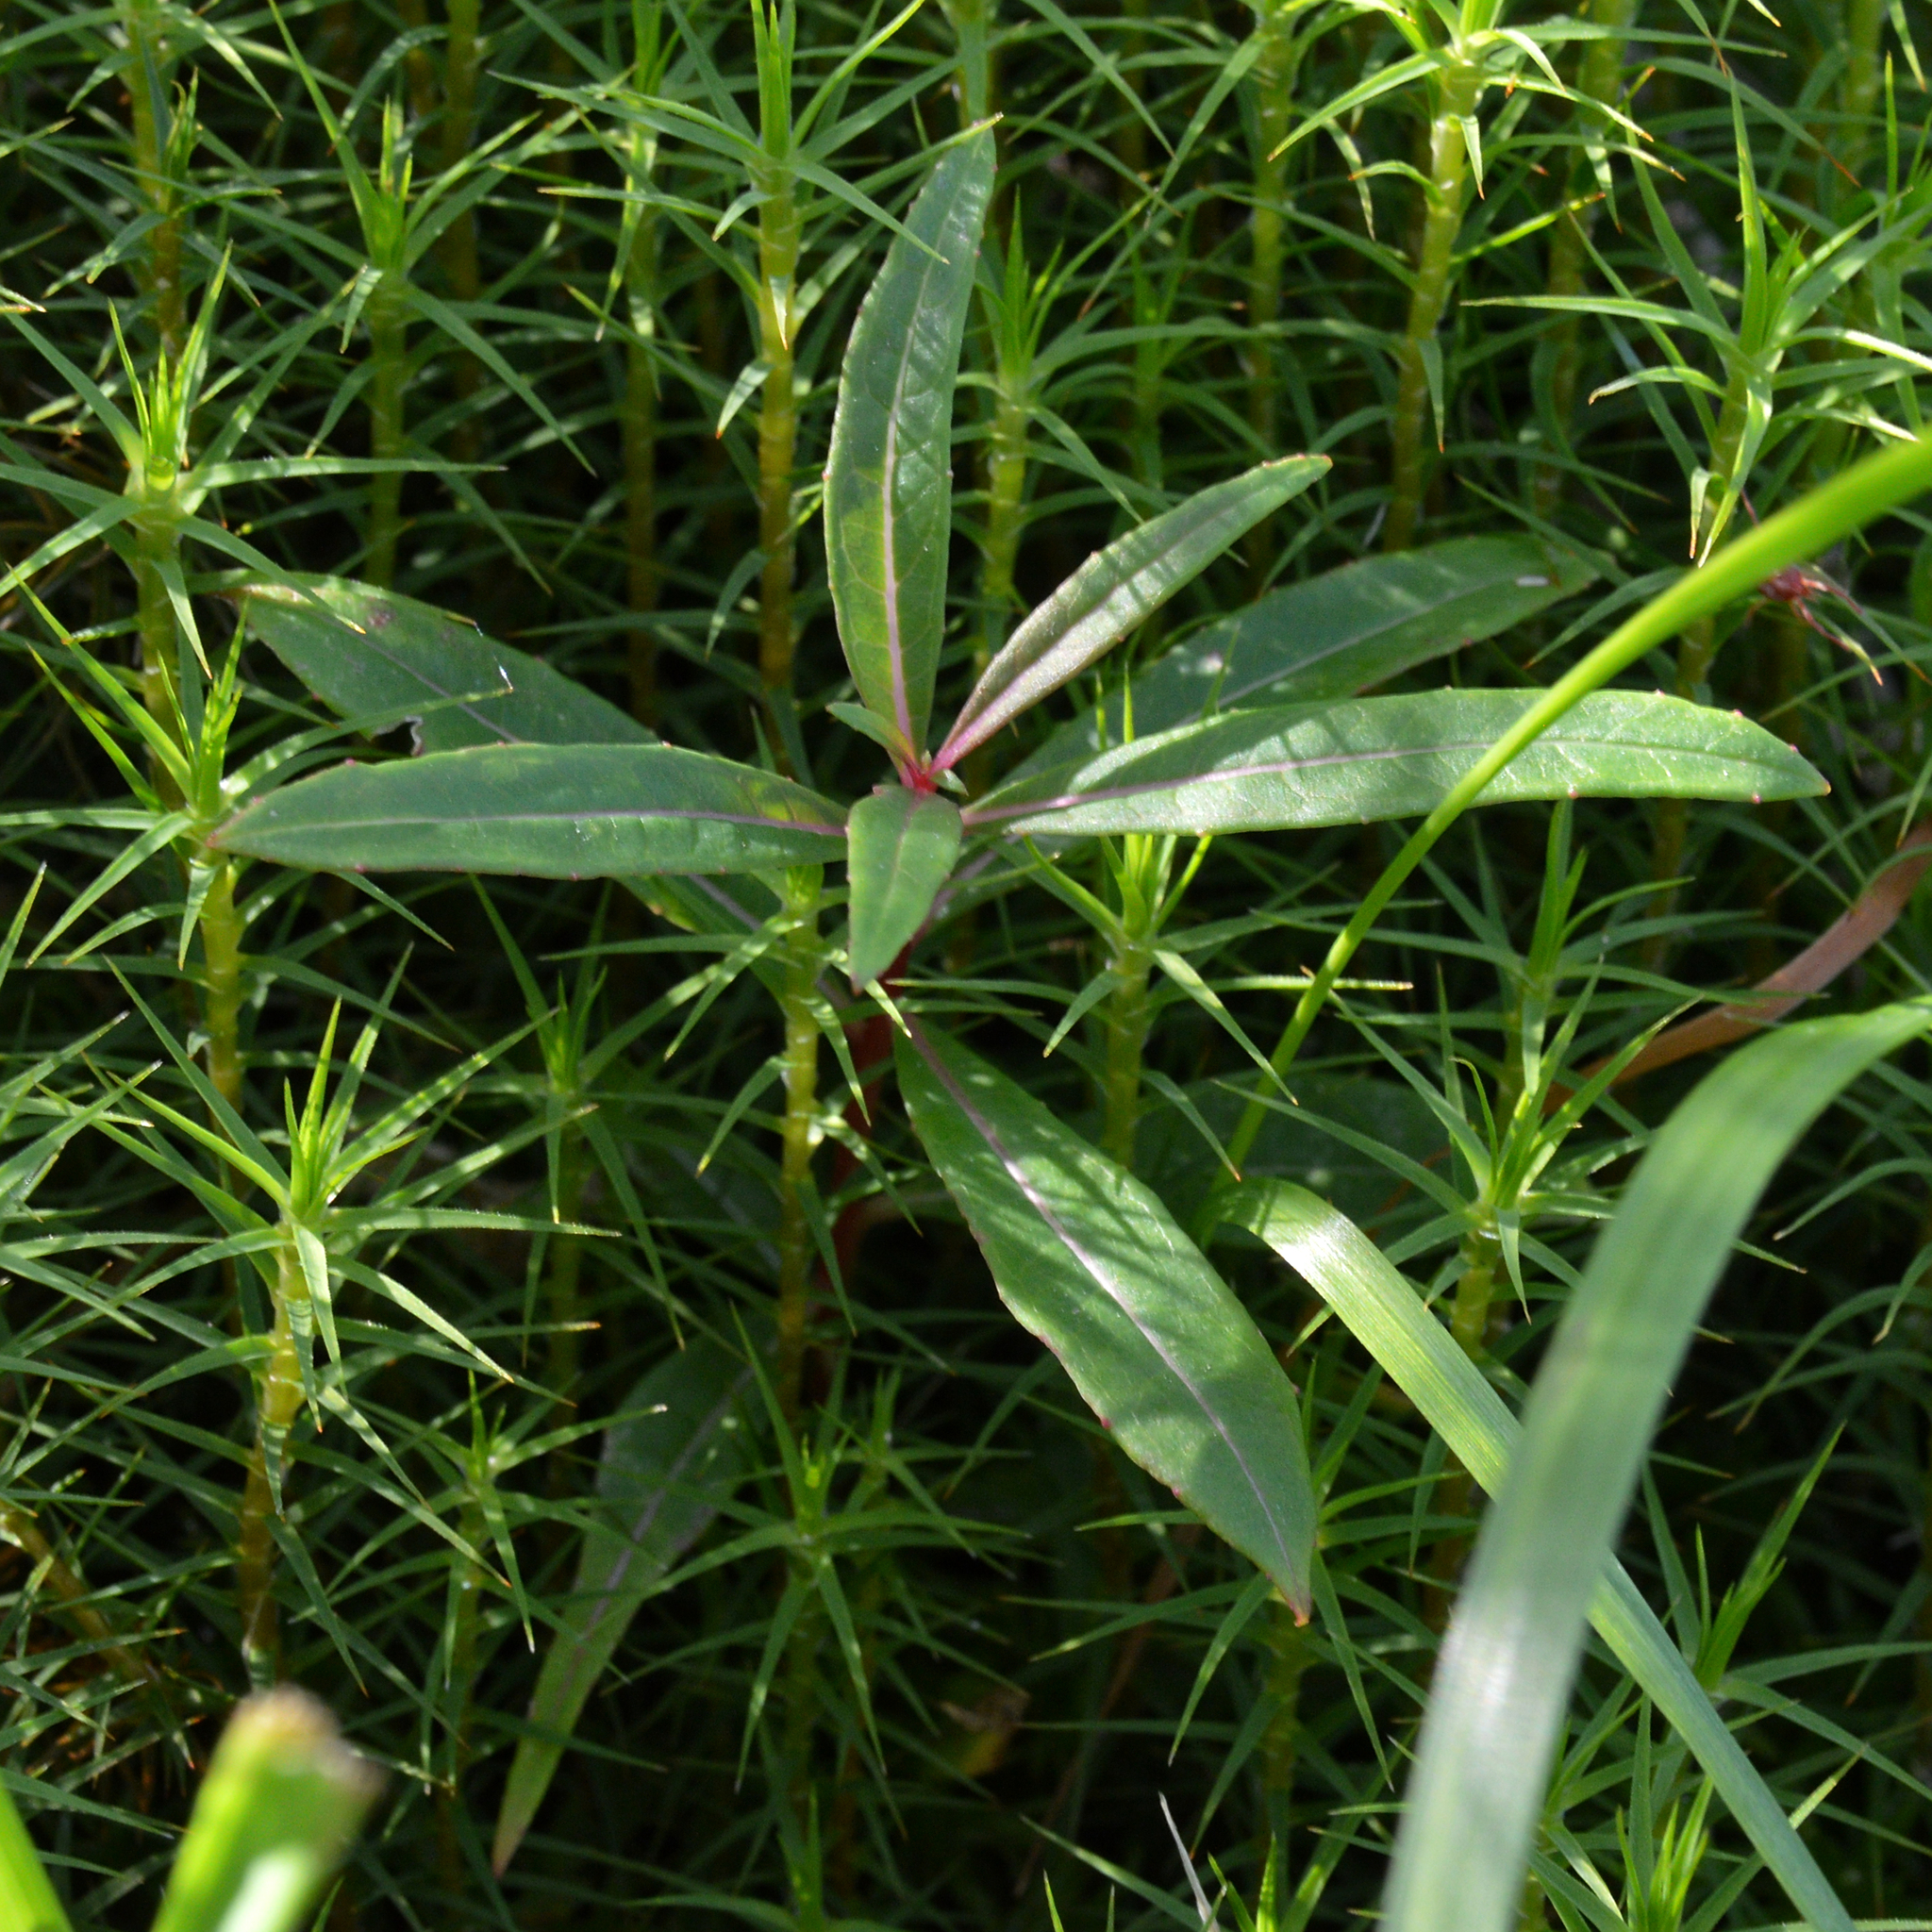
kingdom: Plantae
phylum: Tracheophyta
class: Magnoliopsida
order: Myrtales
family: Onagraceae
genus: Chamaenerion
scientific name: Chamaenerion angustifolium
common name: Fireweed
